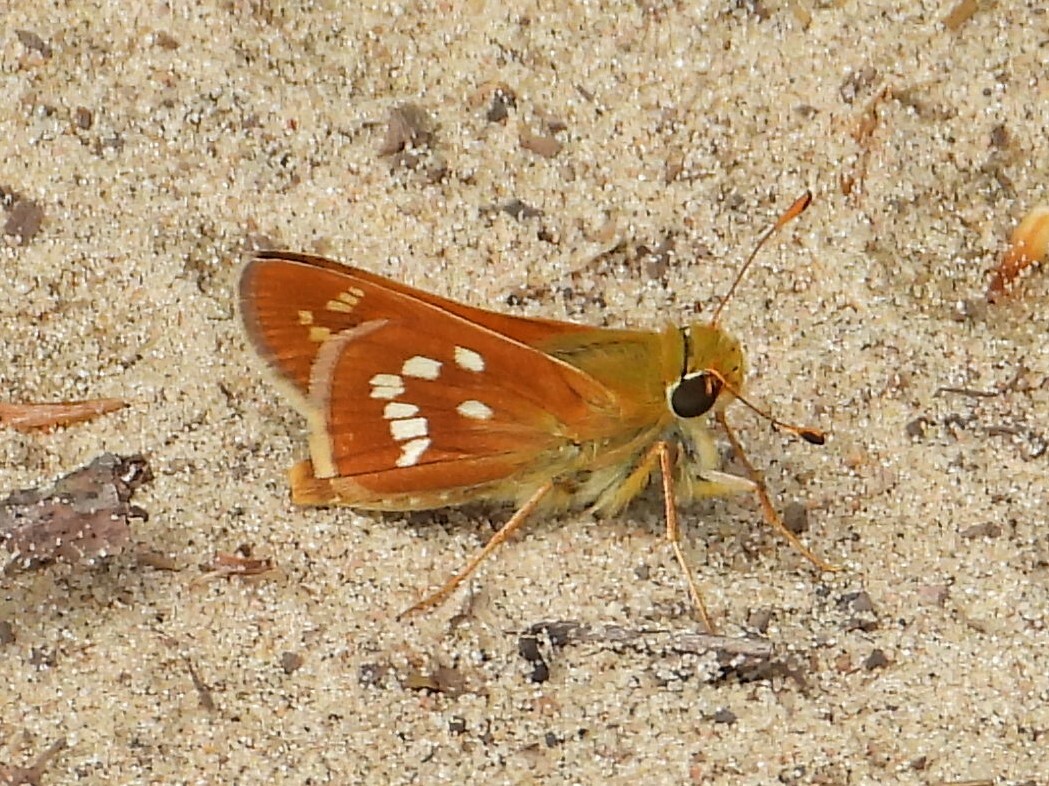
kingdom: Animalia
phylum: Arthropoda
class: Insecta
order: Lepidoptera
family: Hesperiidae
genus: Hesperia
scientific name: Hesperia leonardus
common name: Leonard's skipper
